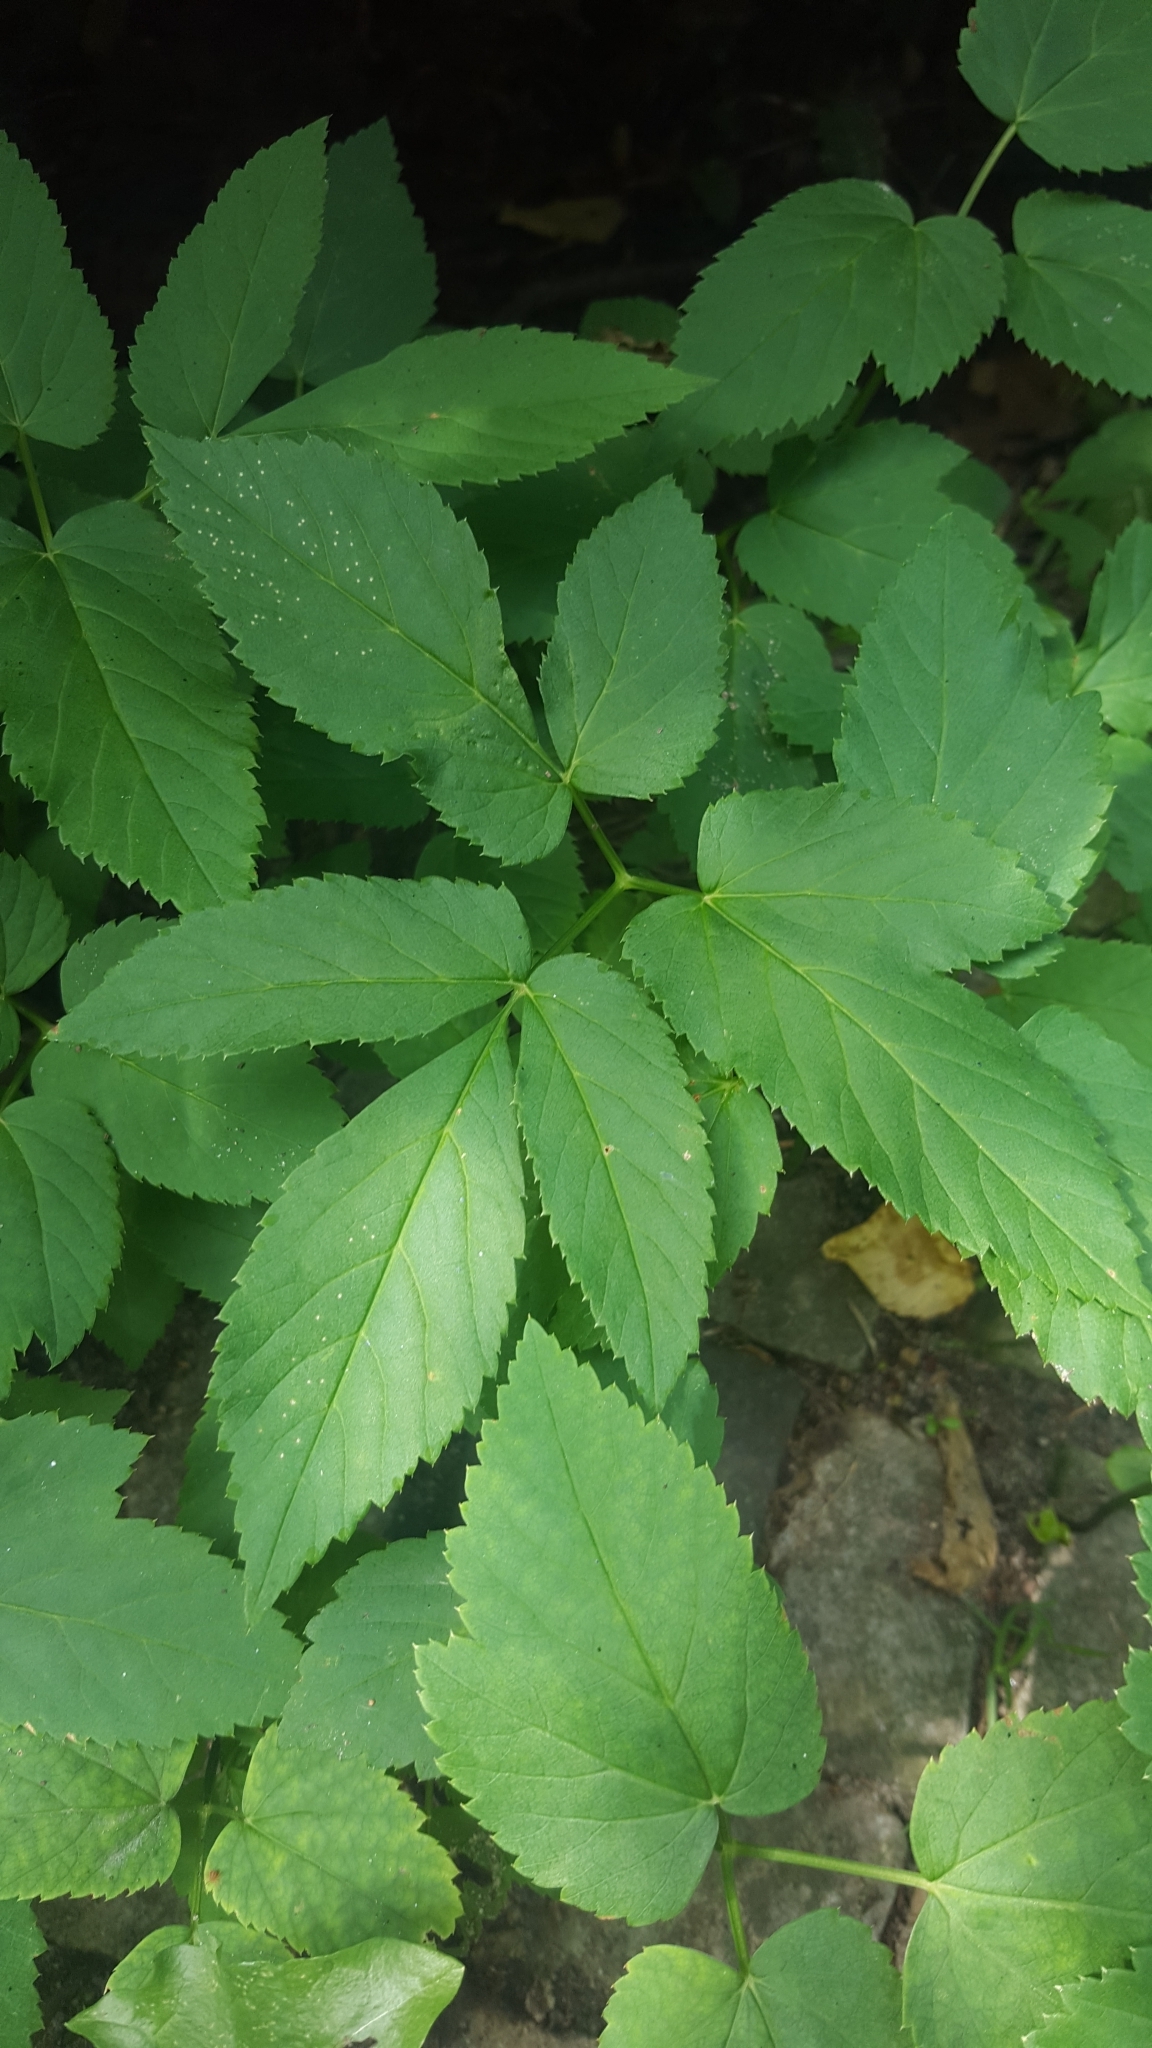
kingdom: Plantae
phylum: Tracheophyta
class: Magnoliopsida
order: Apiales
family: Apiaceae
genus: Aegopodium
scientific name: Aegopodium podagraria
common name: Ground-elder
